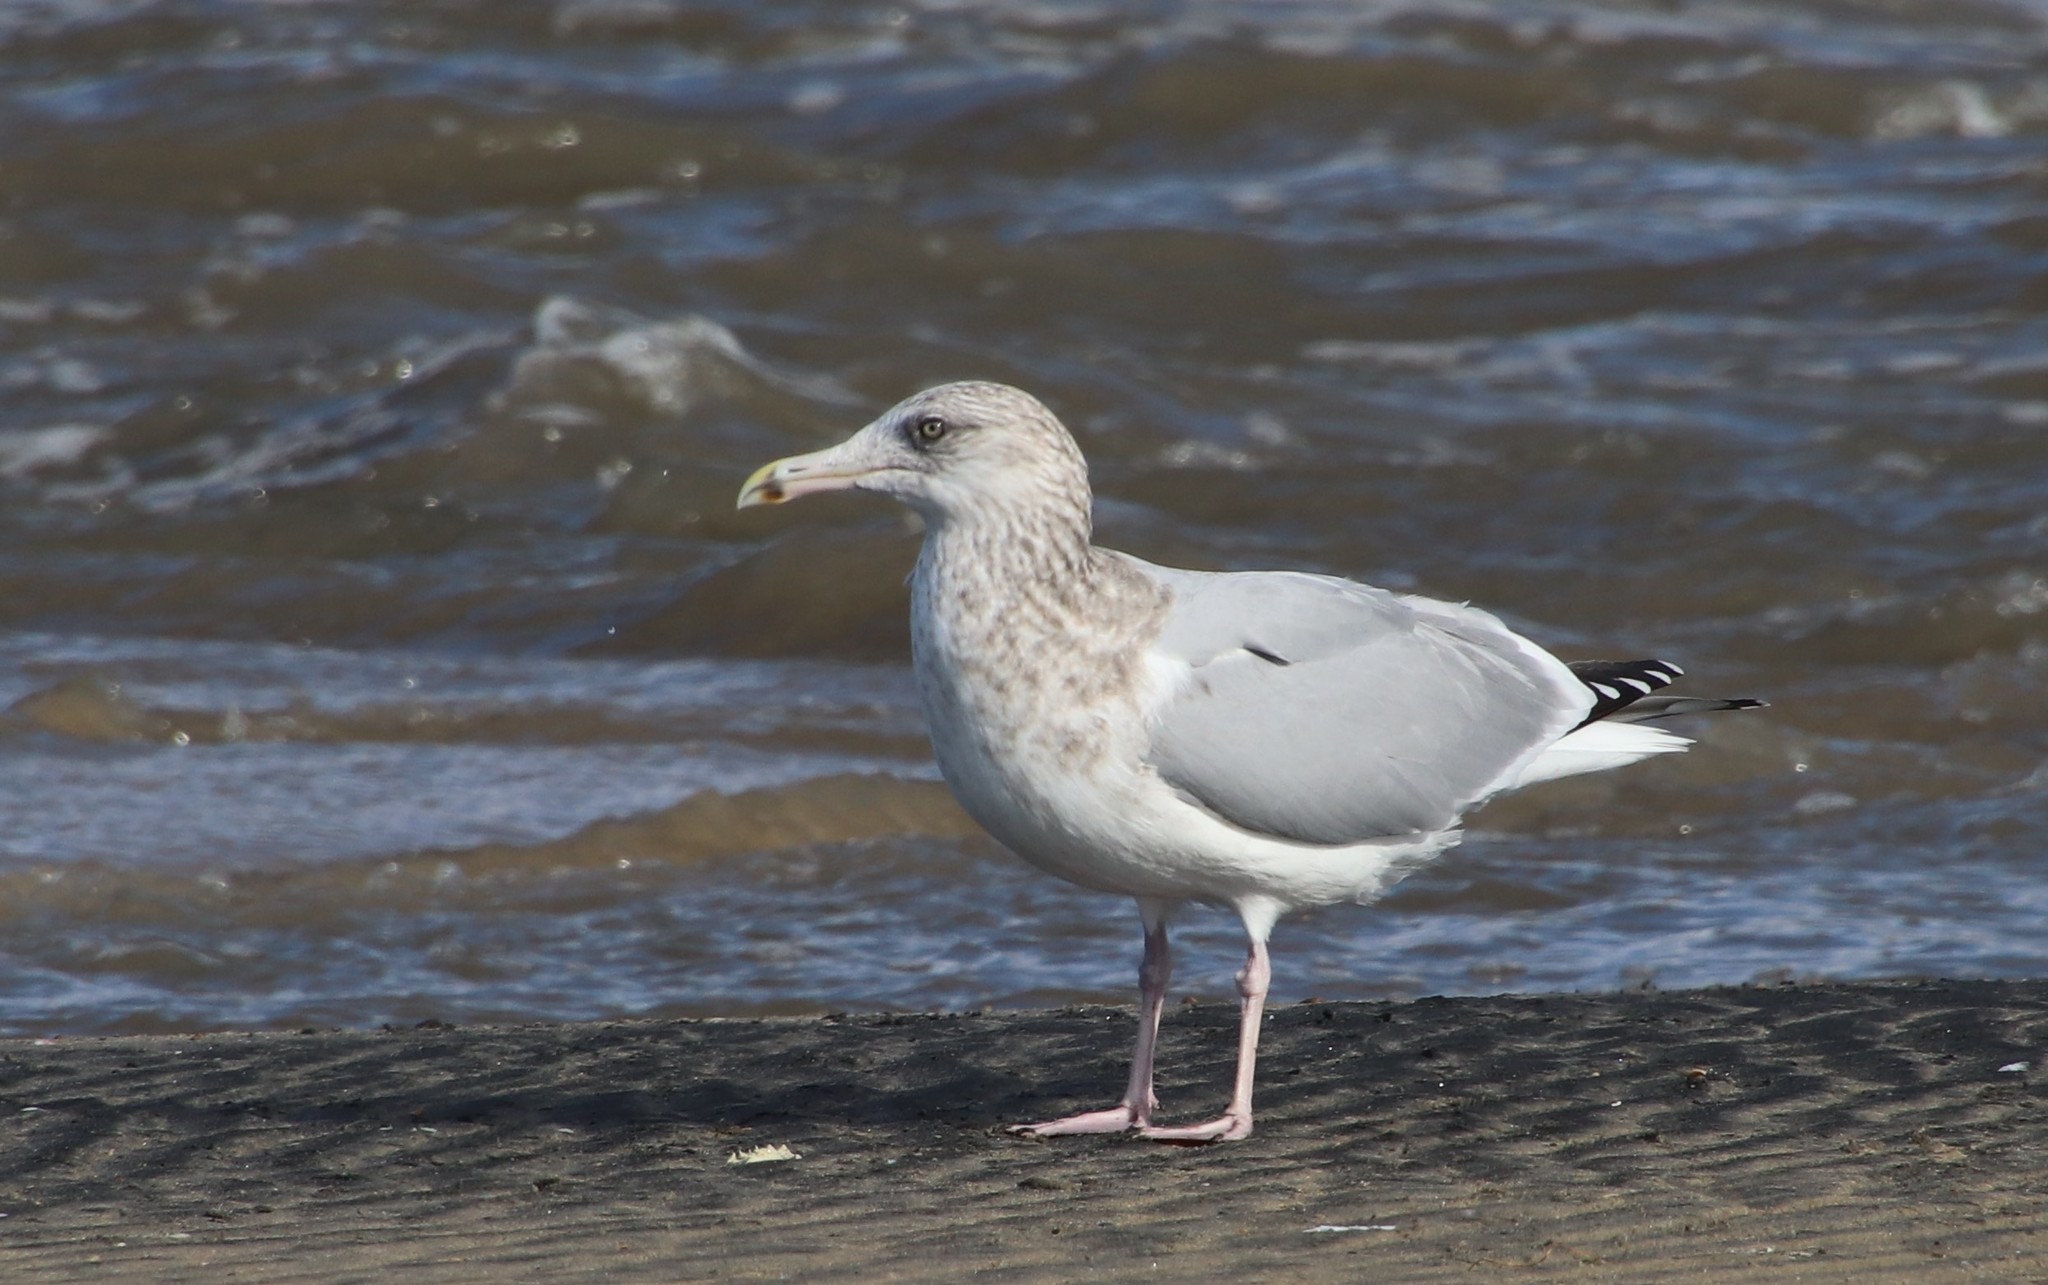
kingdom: Animalia
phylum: Chordata
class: Aves
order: Charadriiformes
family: Laridae
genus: Larus
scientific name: Larus argentatus
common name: Herring gull
